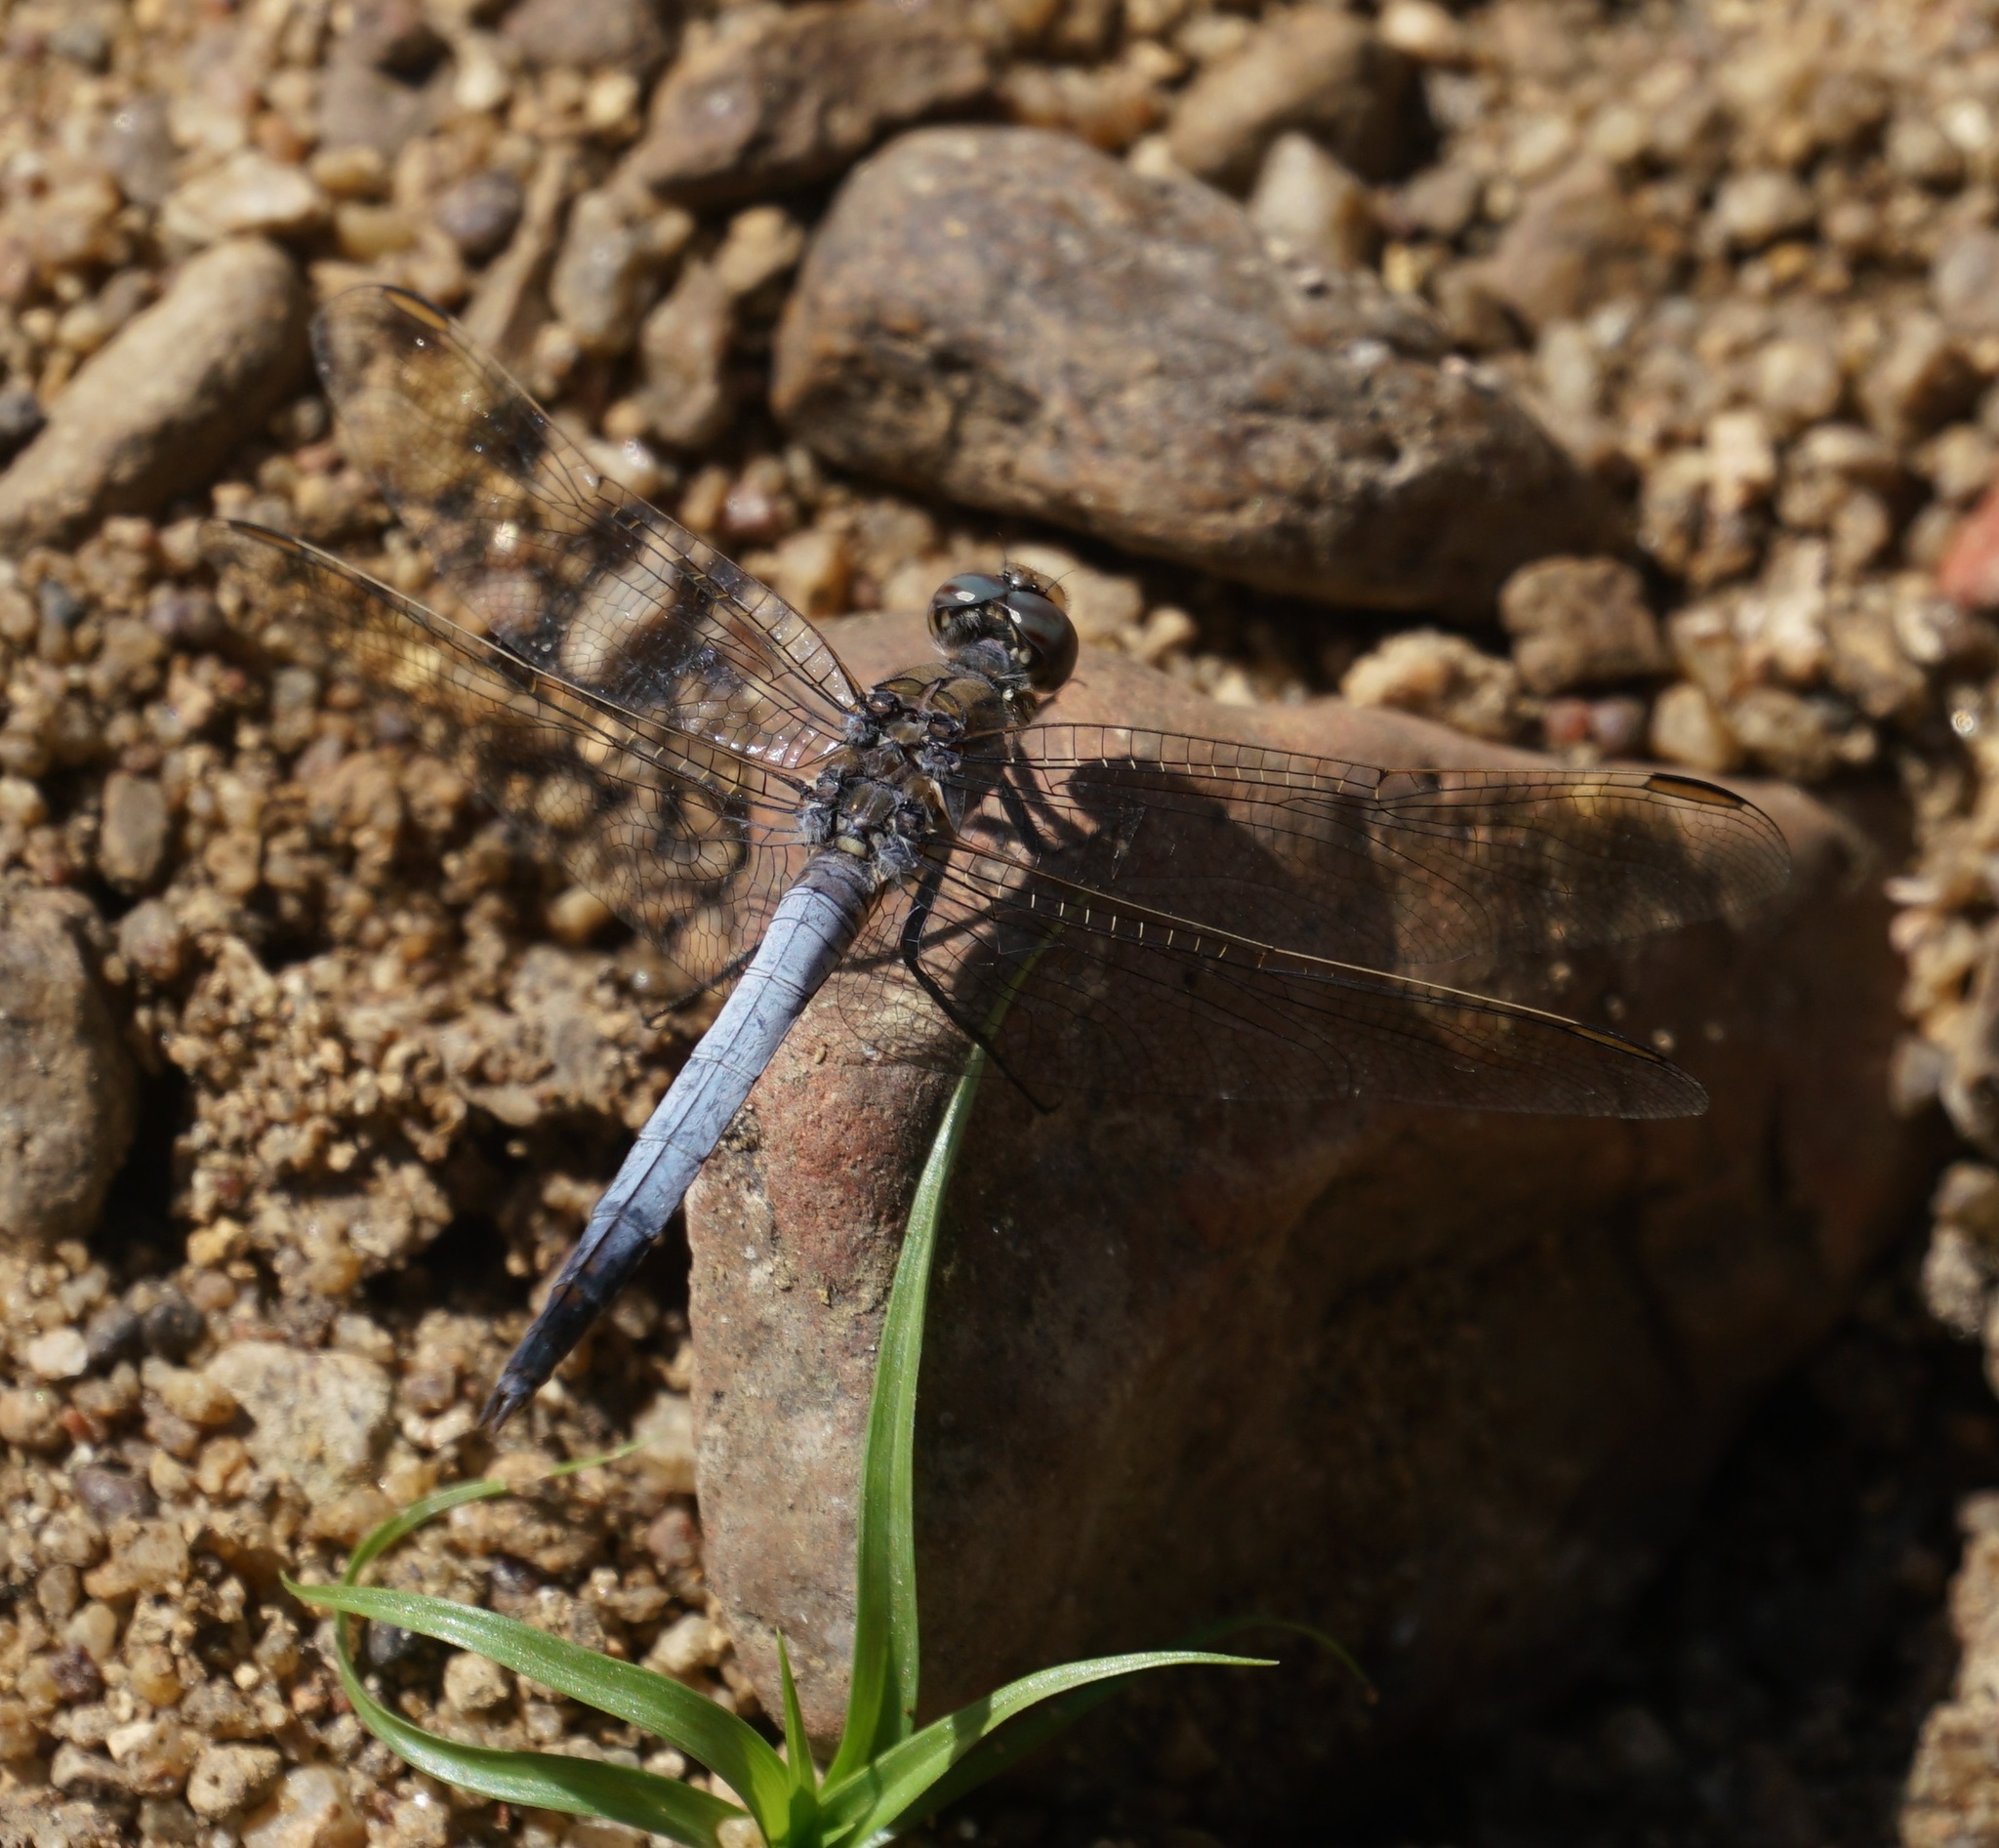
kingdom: Animalia
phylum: Arthropoda
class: Insecta
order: Odonata
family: Libellulidae
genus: Orthetrum
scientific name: Orthetrum caledonicum
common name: Blue skimmer
